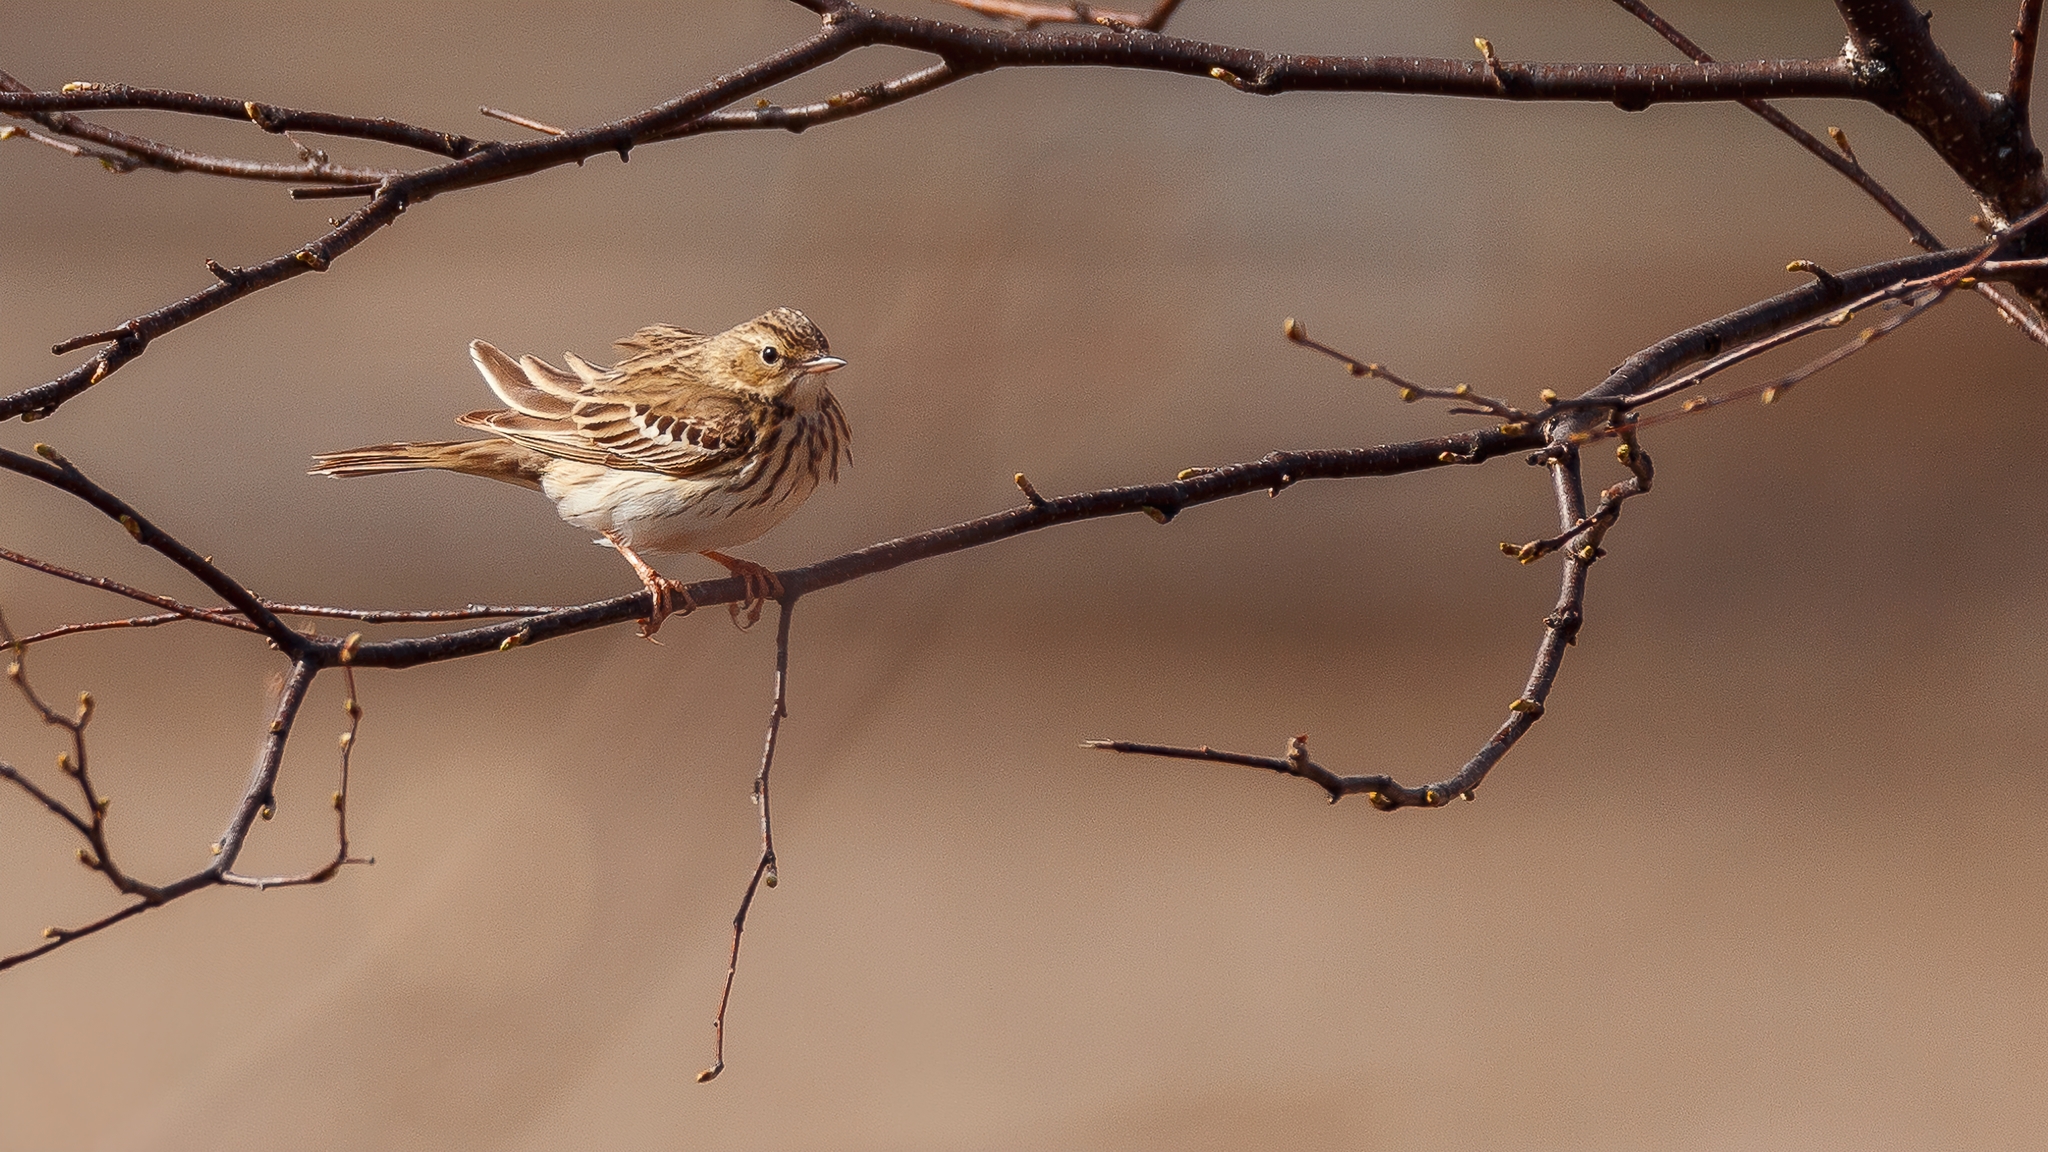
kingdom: Animalia
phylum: Chordata
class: Aves
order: Passeriformes
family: Motacillidae
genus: Anthus
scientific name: Anthus trivialis
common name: Tree pipit
